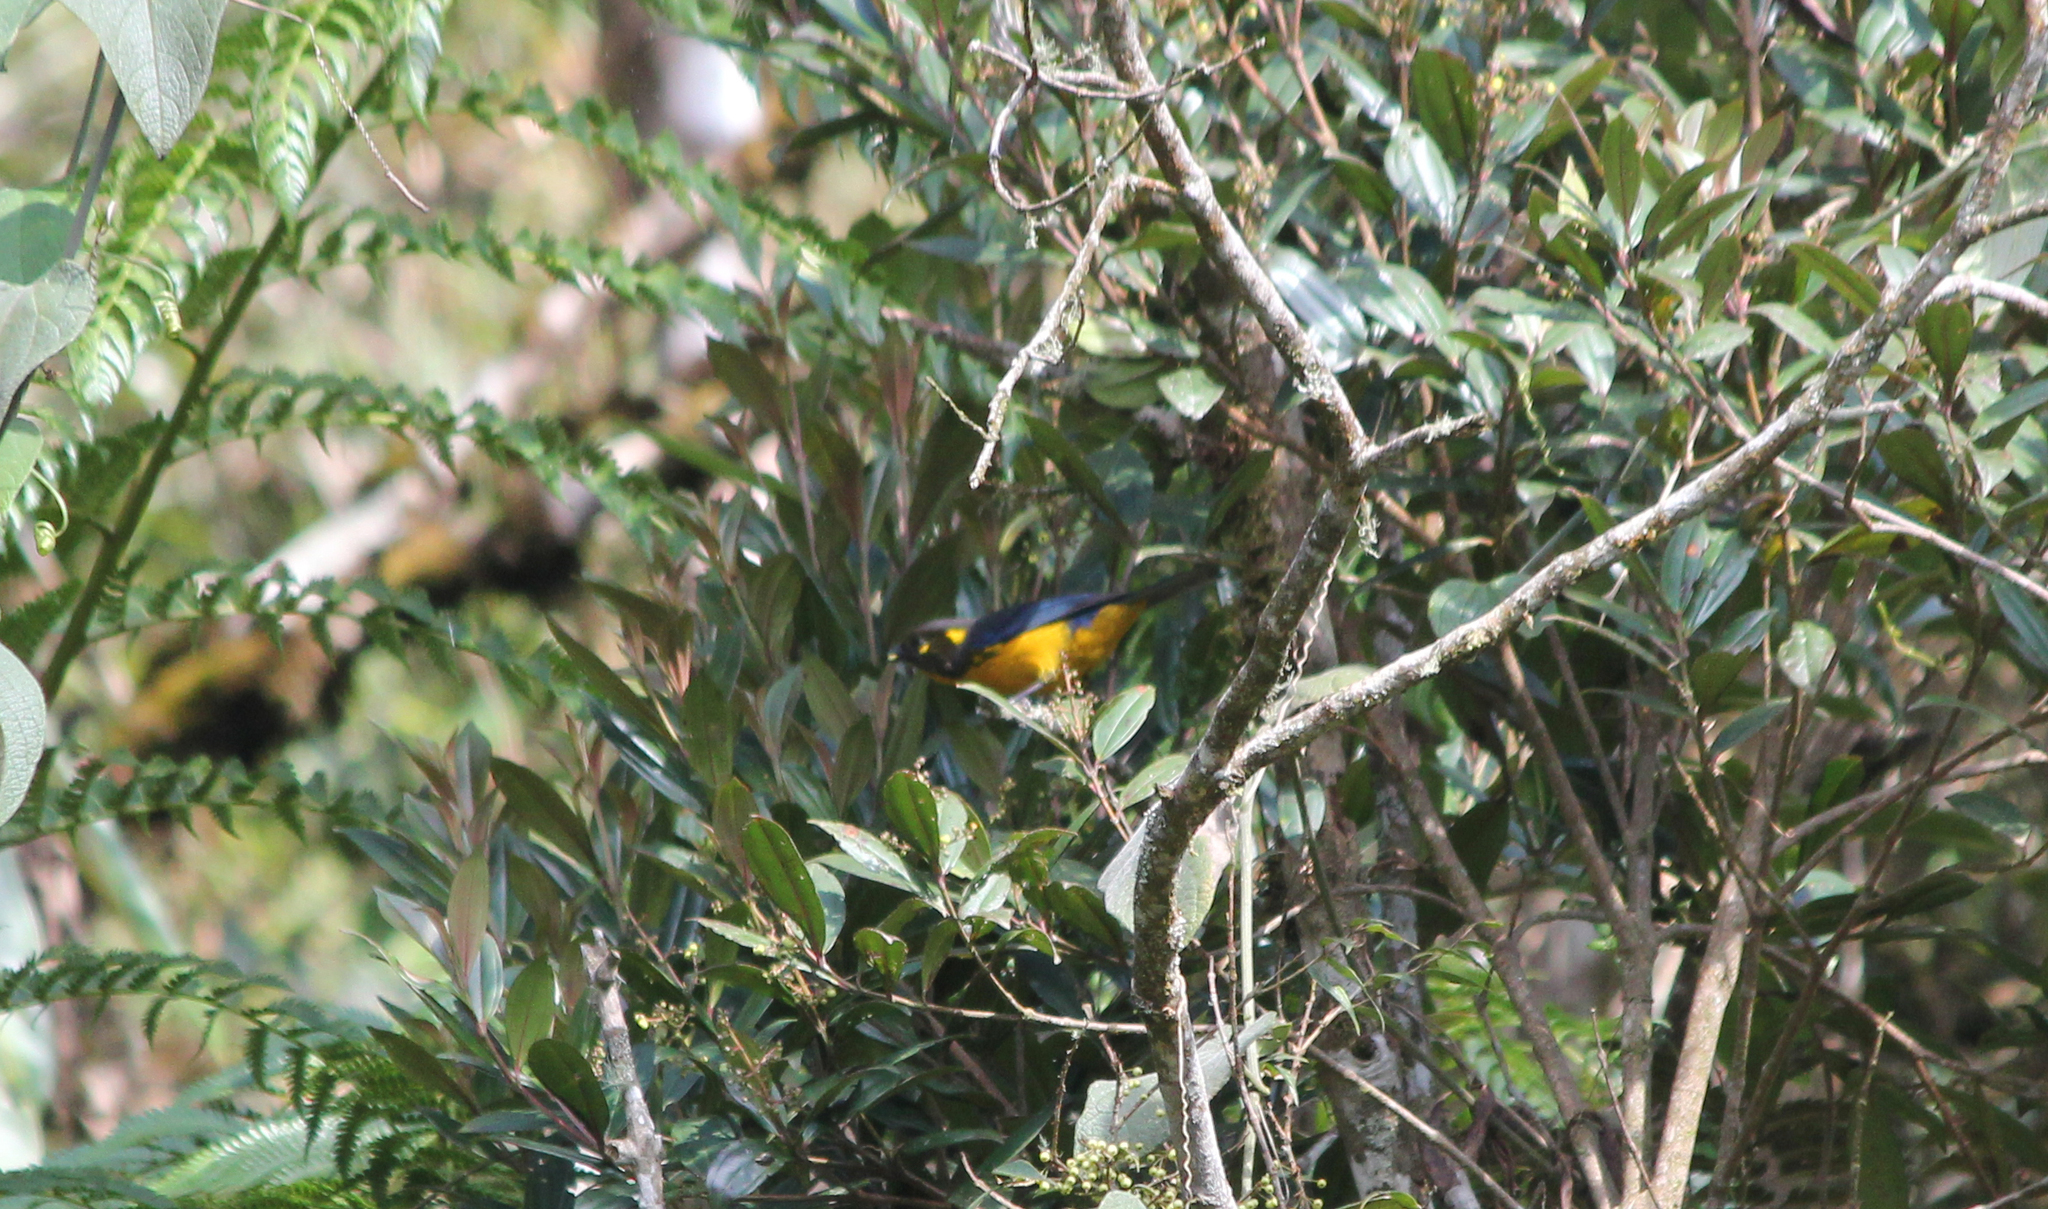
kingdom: Animalia
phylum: Chordata
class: Aves
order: Passeriformes
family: Thraupidae
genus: Anisognathus
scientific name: Anisognathus lacrymosus
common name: Lacrimose mountain-tanager
